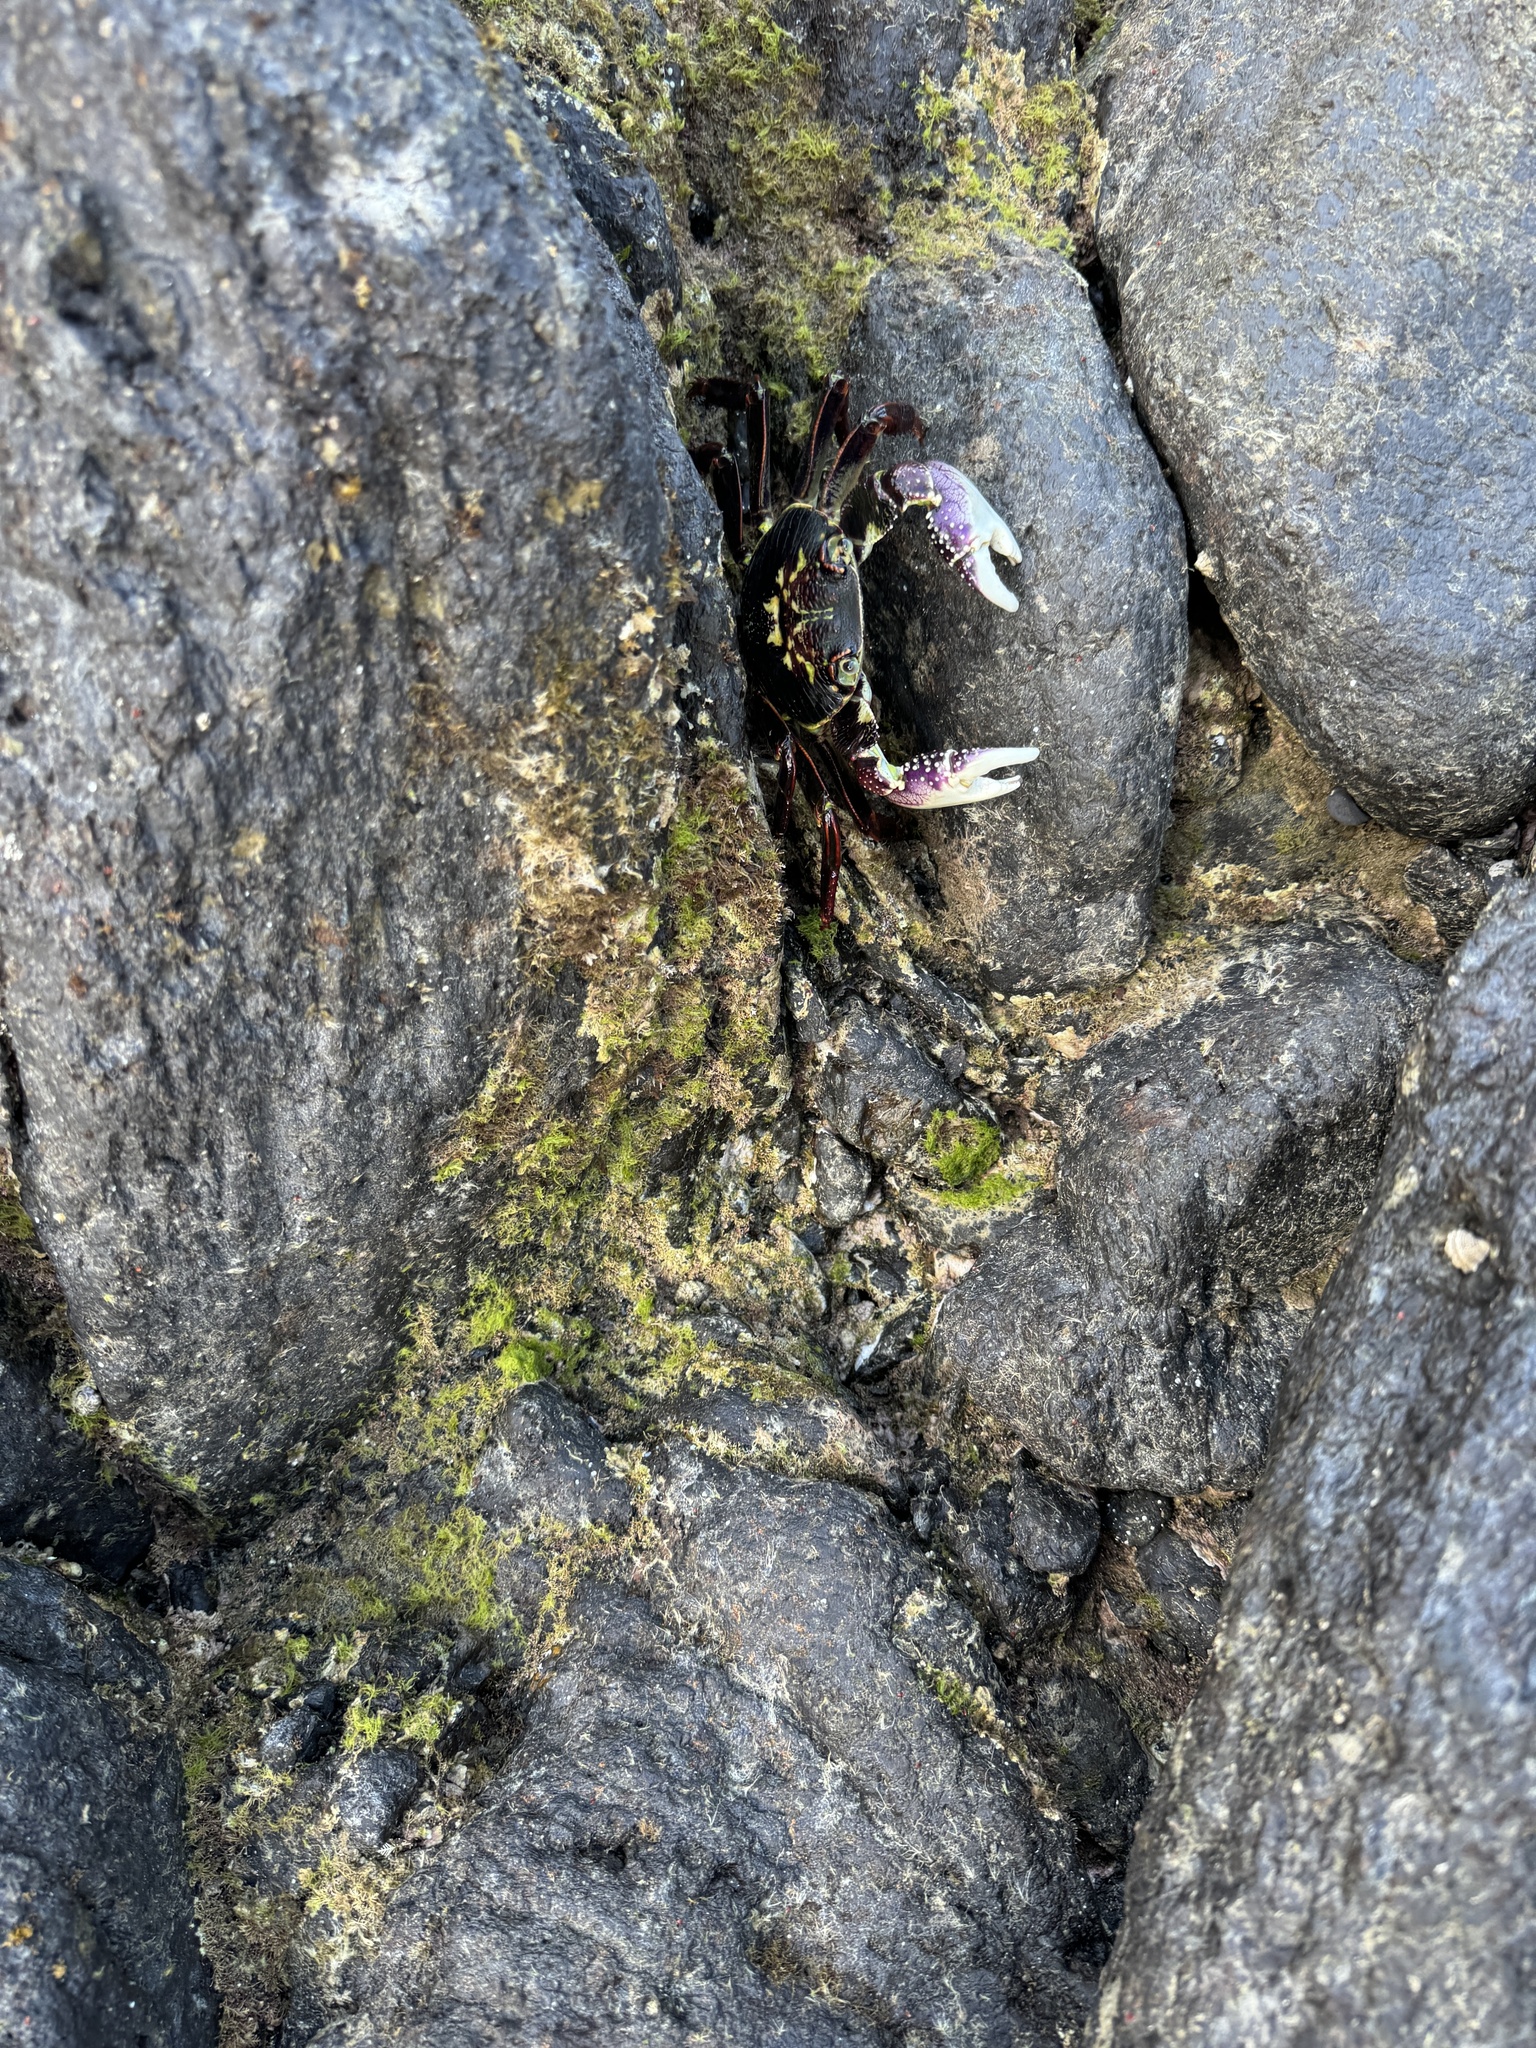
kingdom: Animalia
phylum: Arthropoda
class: Malacostraca
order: Decapoda
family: Grapsidae
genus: Leptograpsus
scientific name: Leptograpsus variegatus
